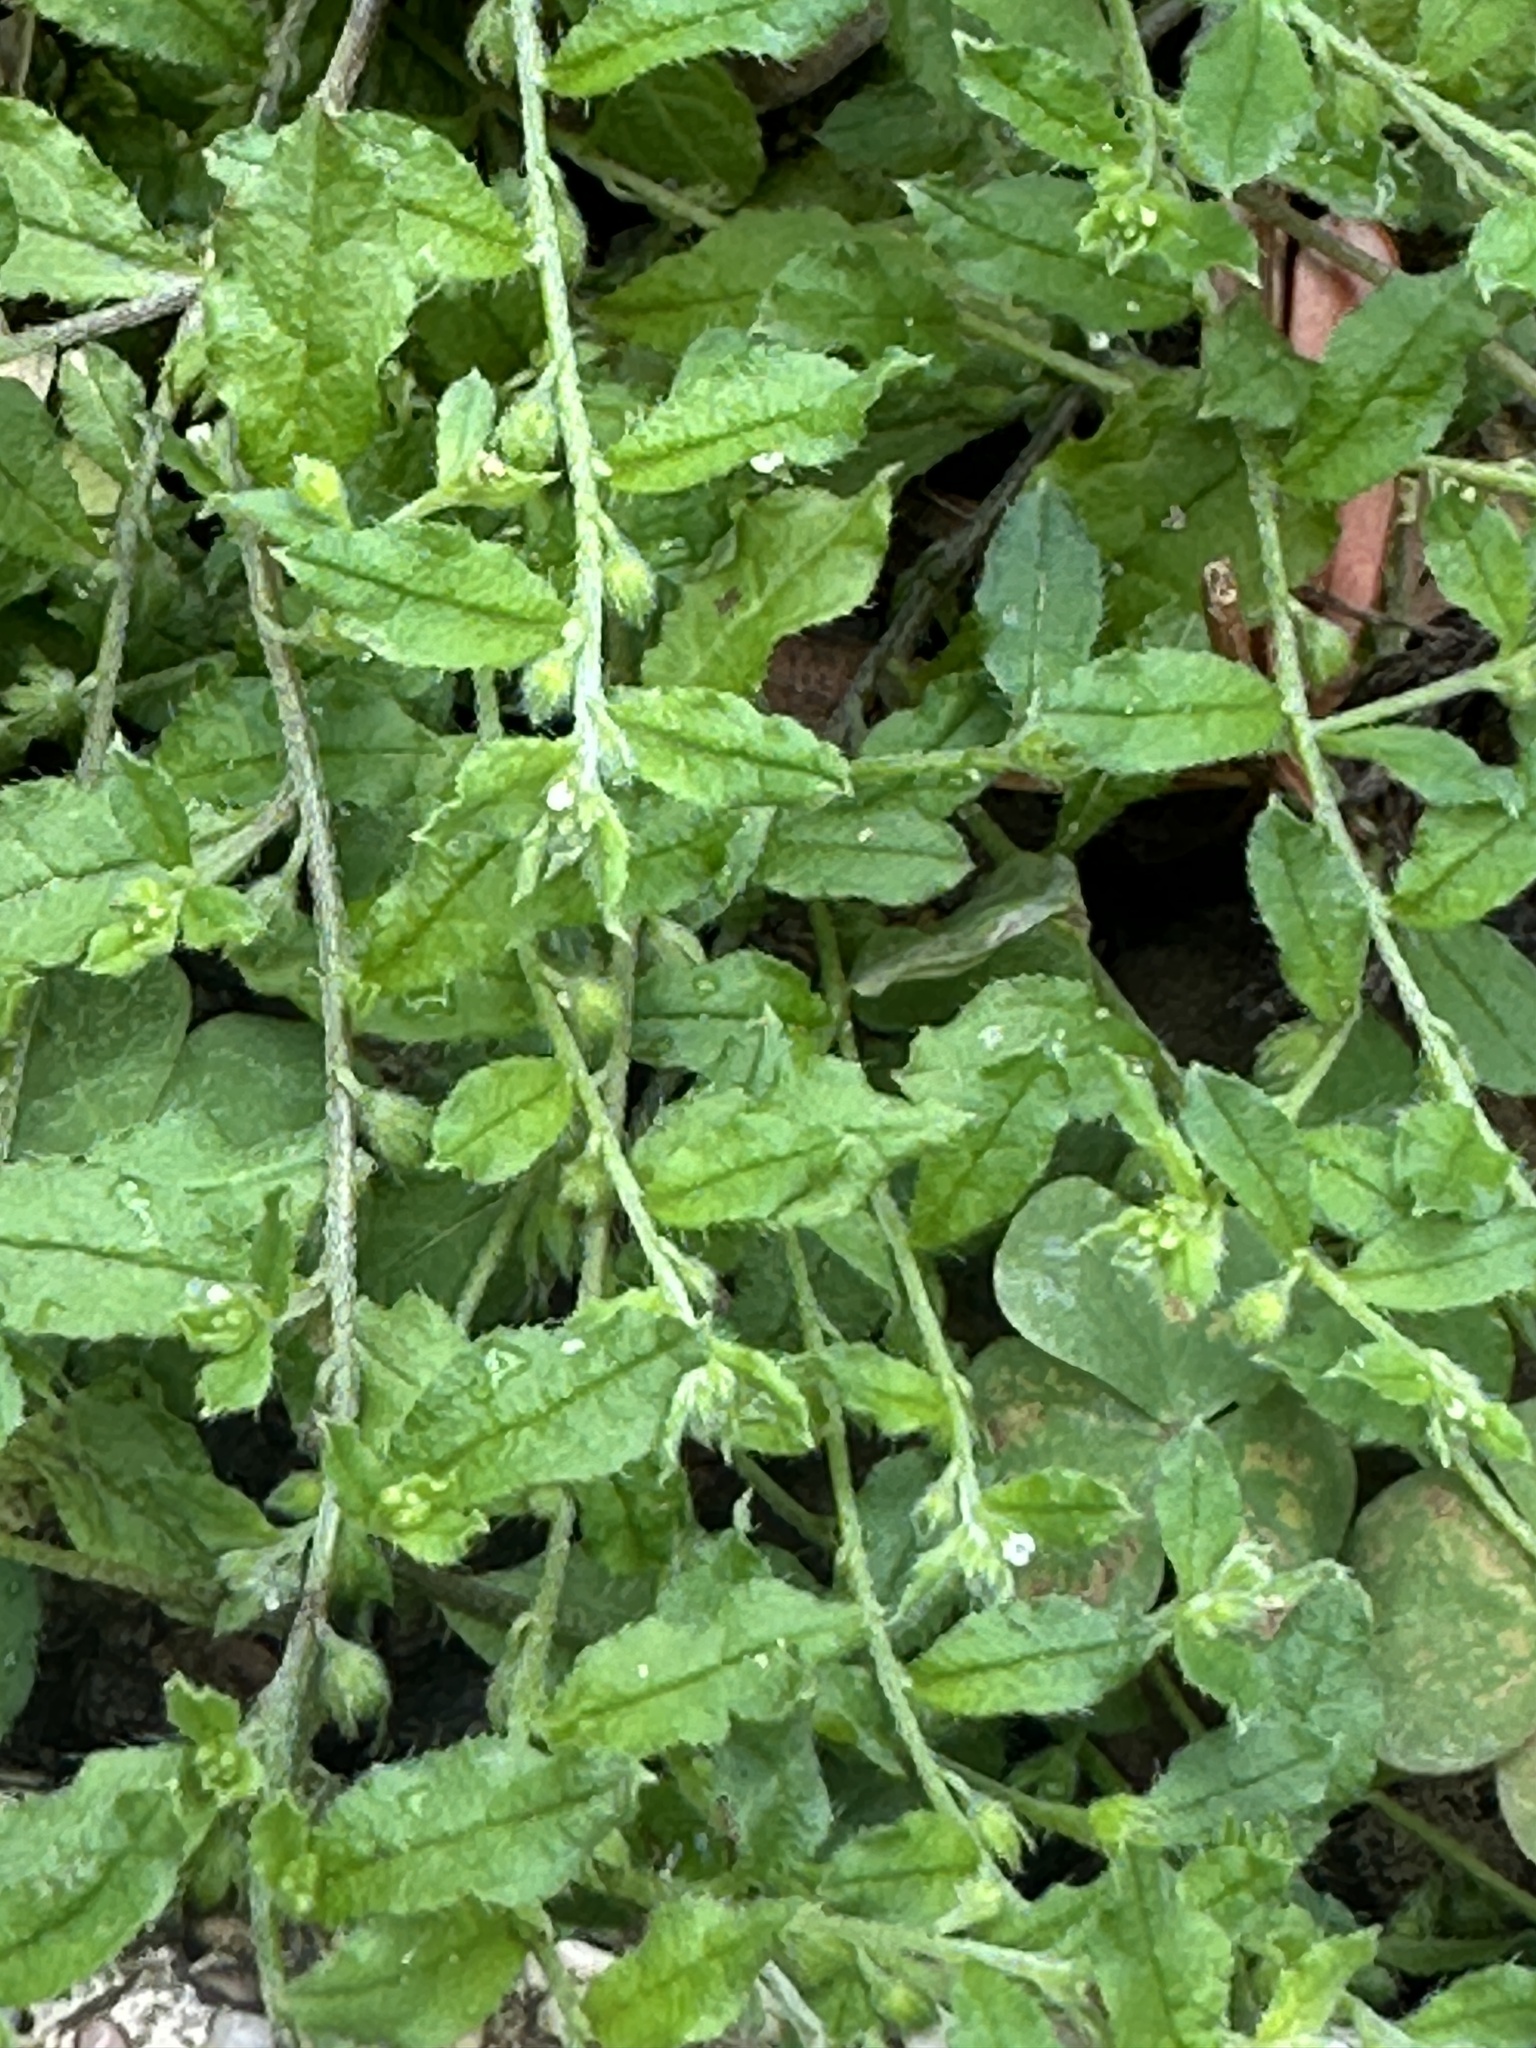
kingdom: Plantae
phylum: Tracheophyta
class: Magnoliopsida
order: Boraginales
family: Boraginaceae
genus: Bothriospermum
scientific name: Bothriospermum zeylanicum
